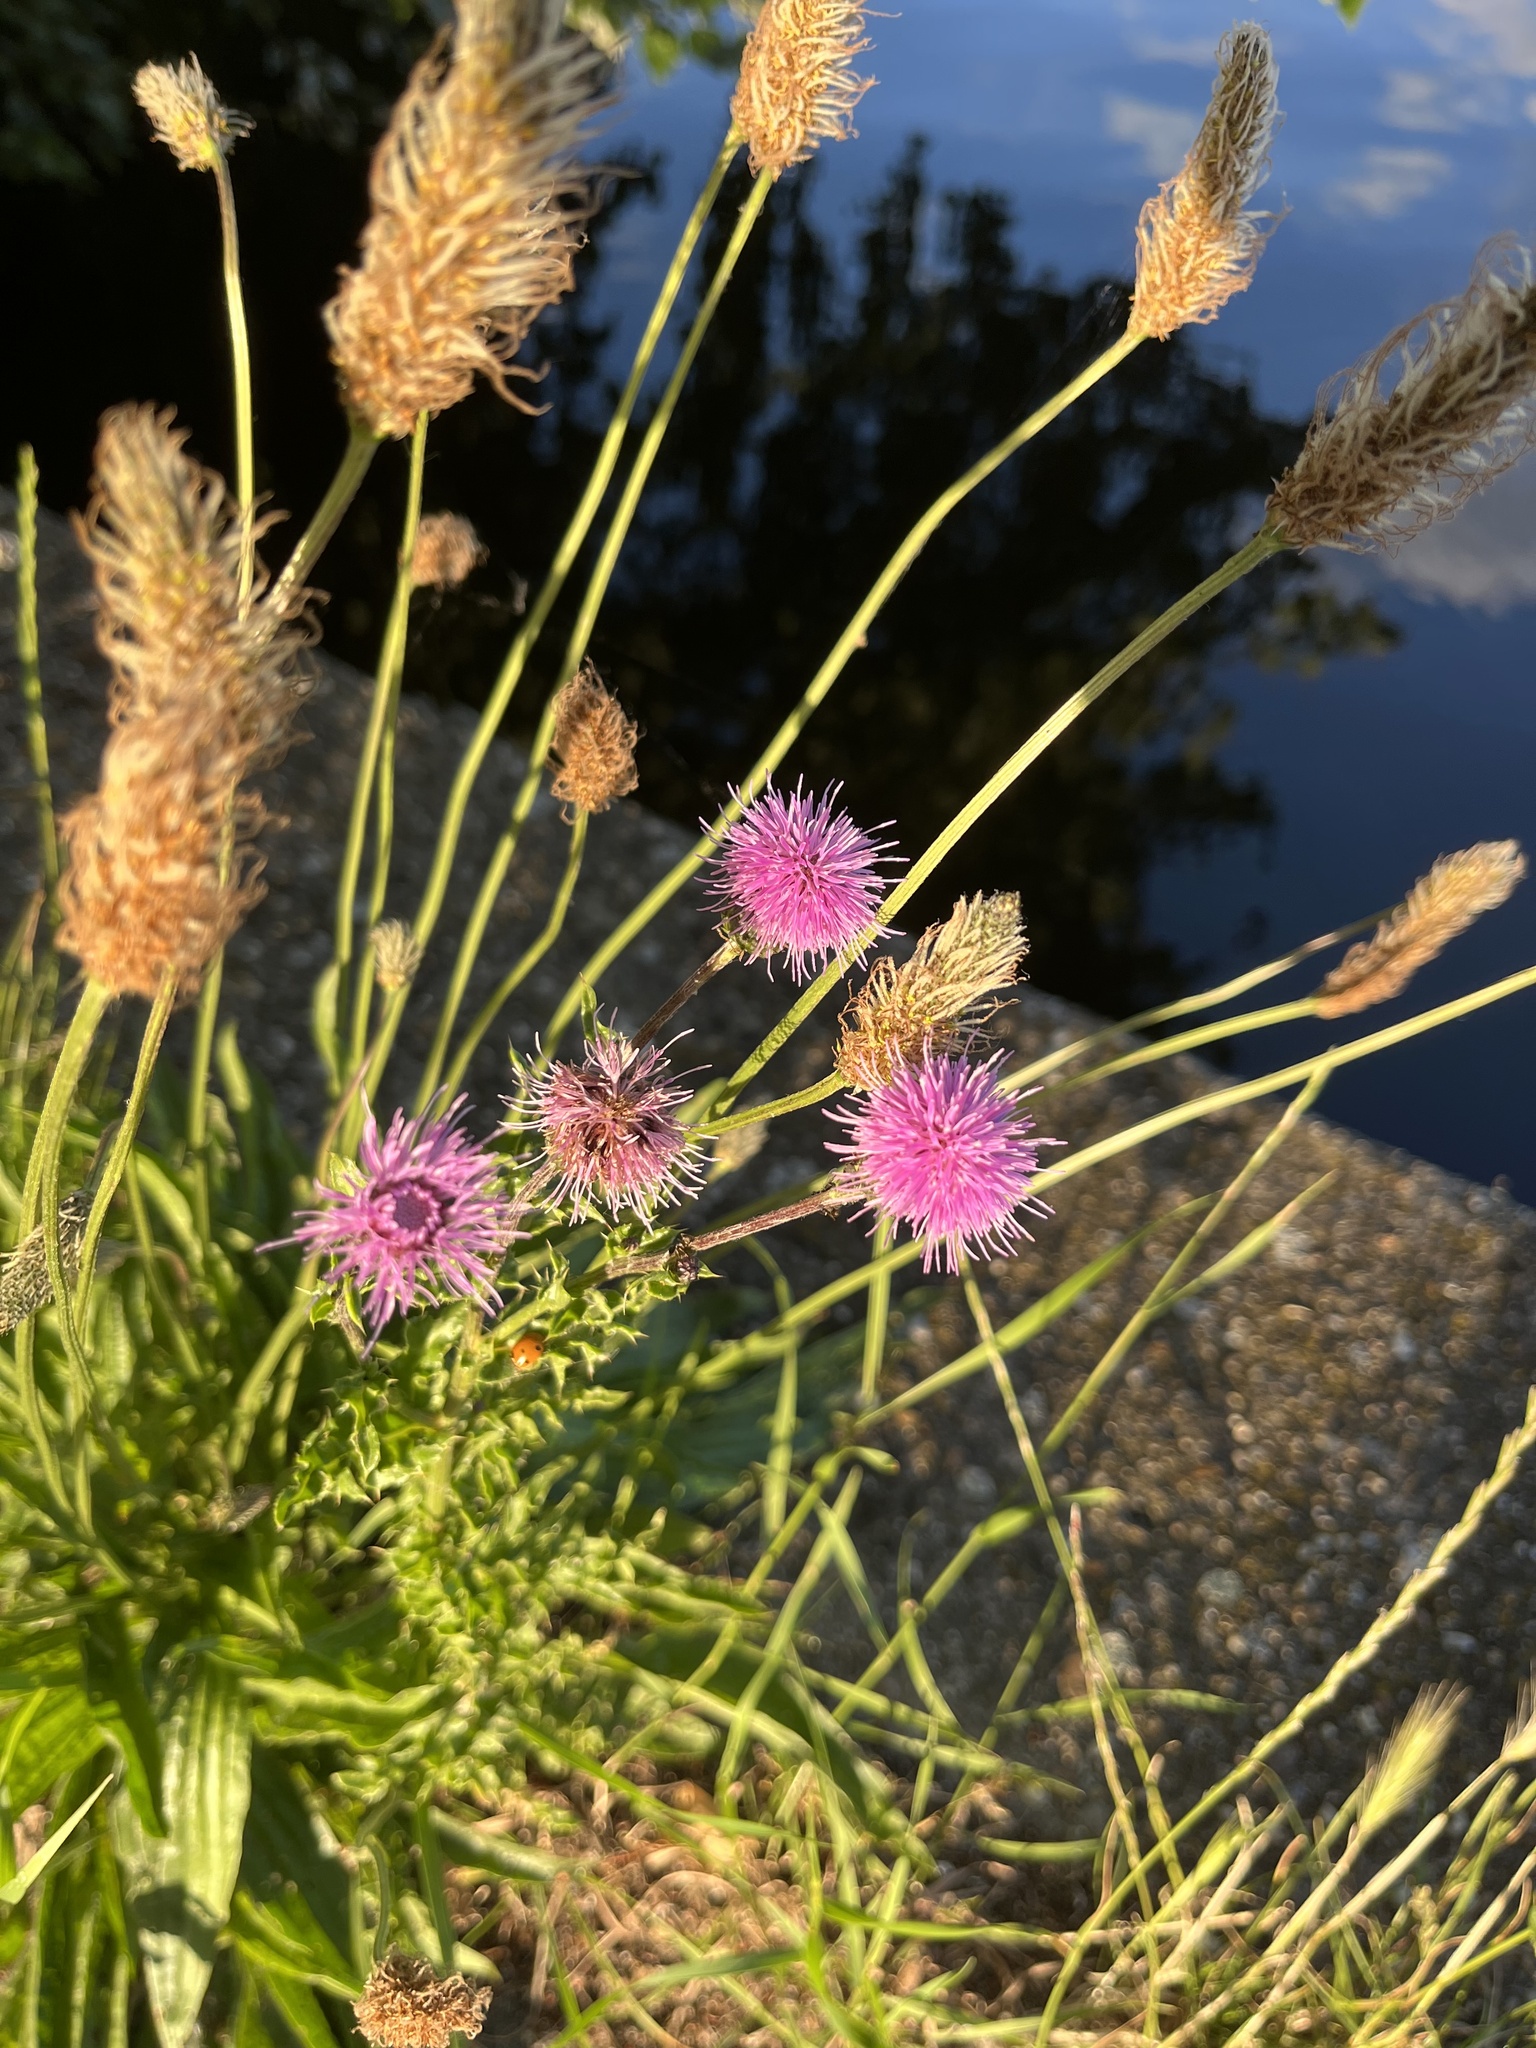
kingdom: Plantae
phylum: Tracheophyta
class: Magnoliopsida
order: Asterales
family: Asteraceae
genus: Cirsium
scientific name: Cirsium arvense
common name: Creeping thistle
